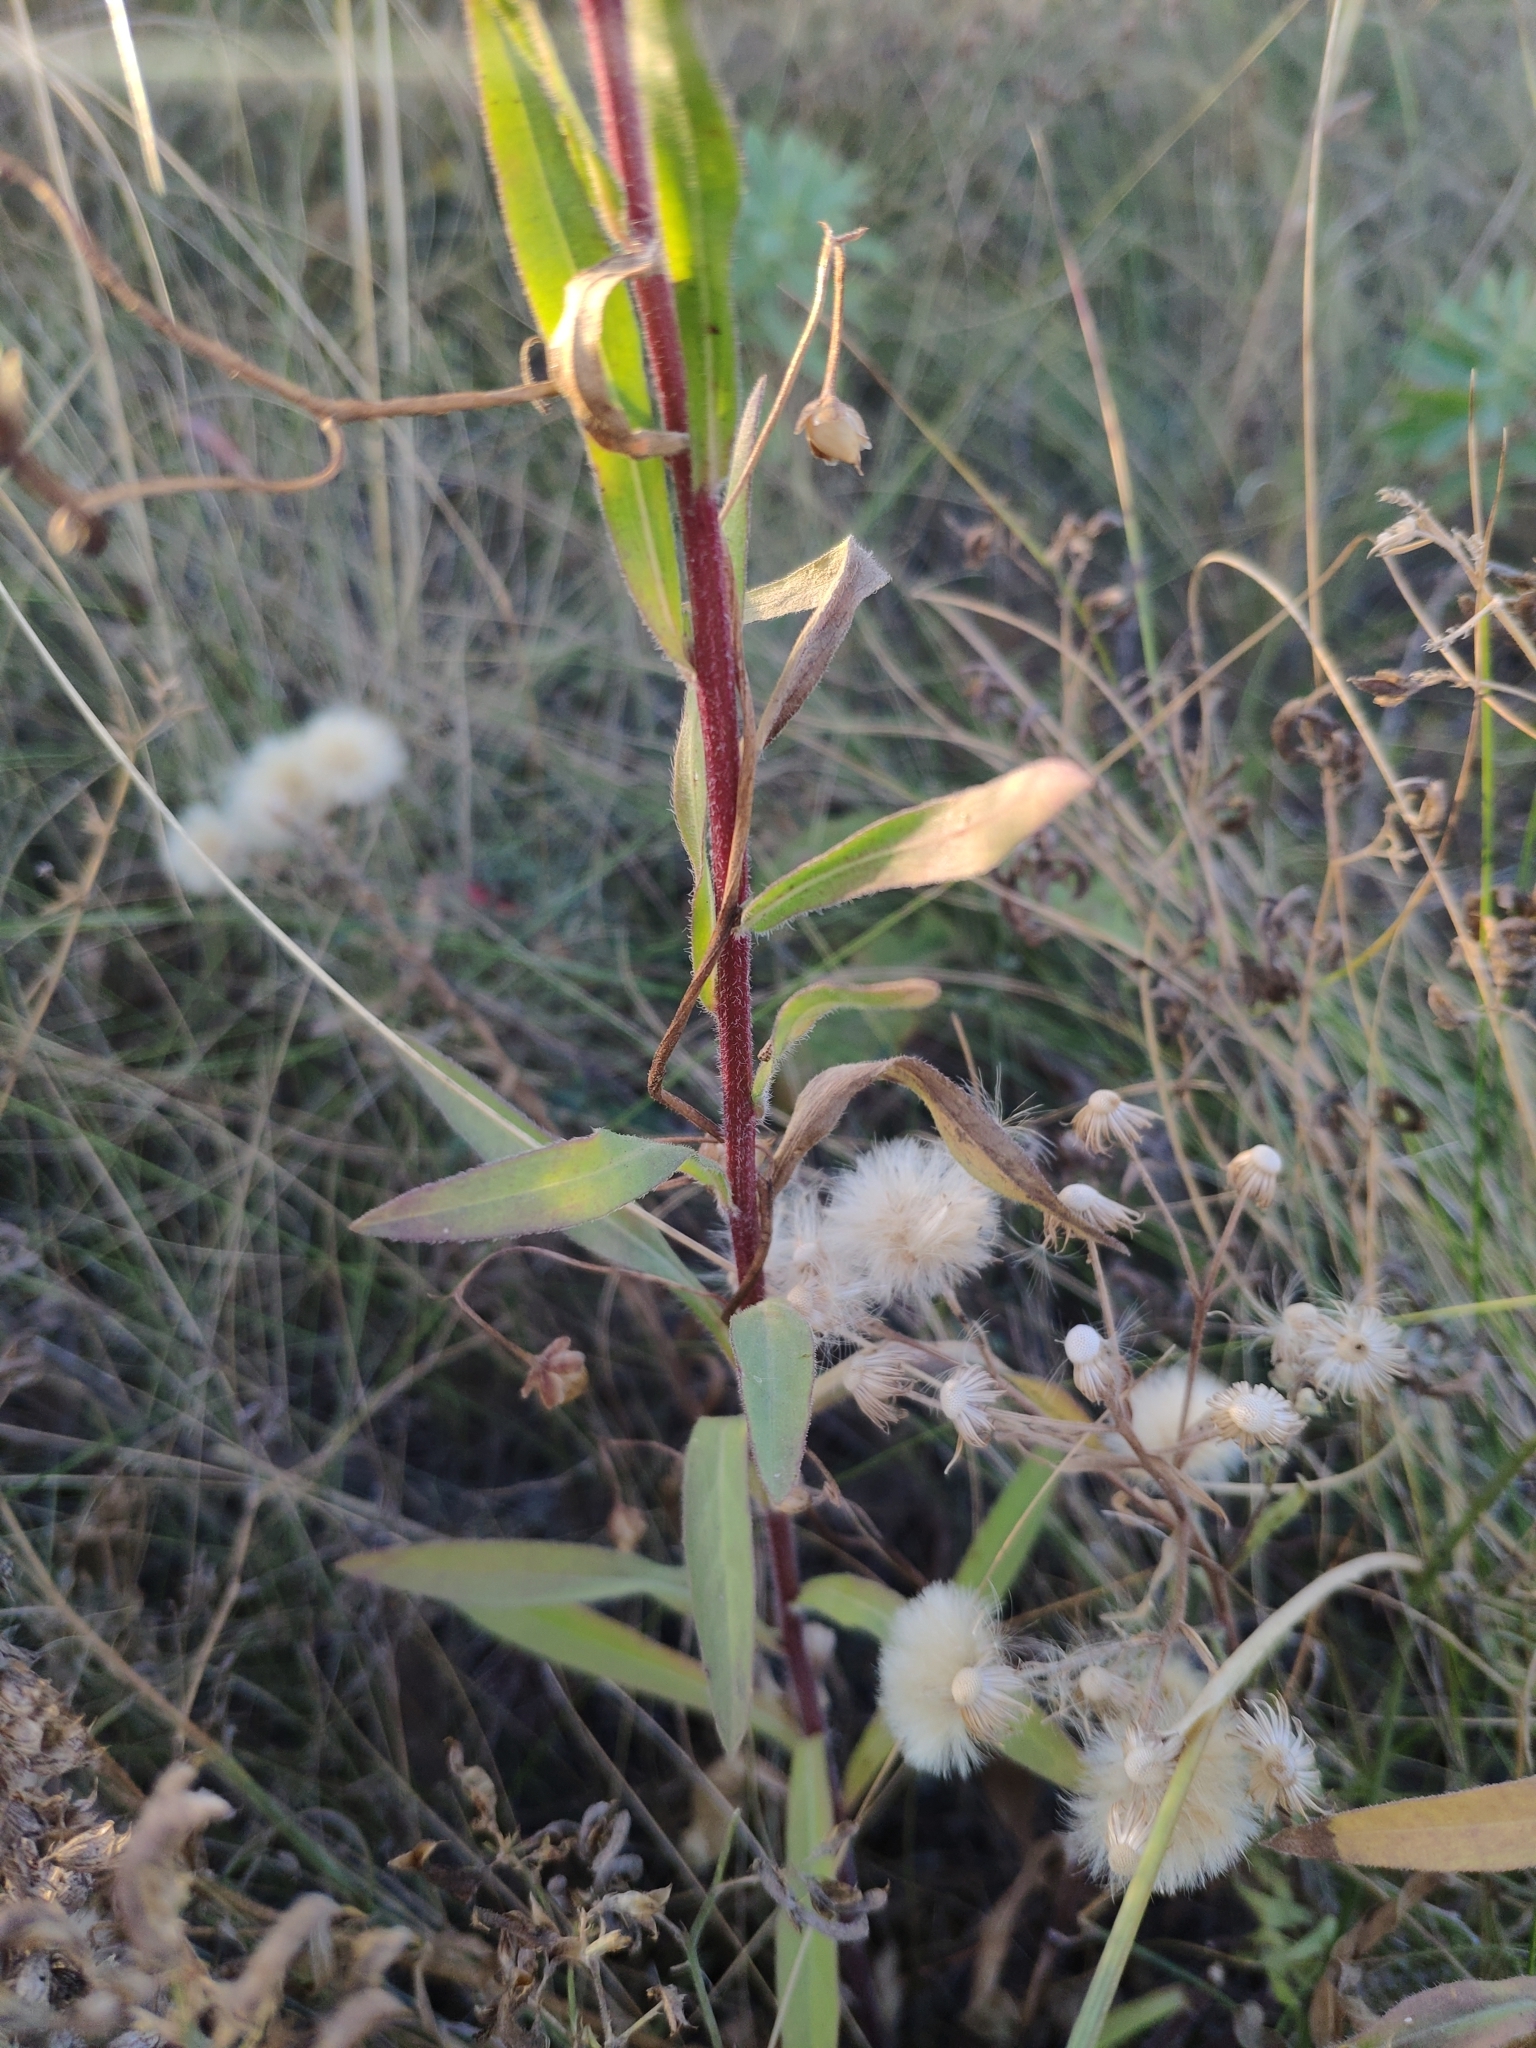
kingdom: Plantae
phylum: Tracheophyta
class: Magnoliopsida
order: Asterales
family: Asteraceae
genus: Erigeron
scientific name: Erigeron podolicus
